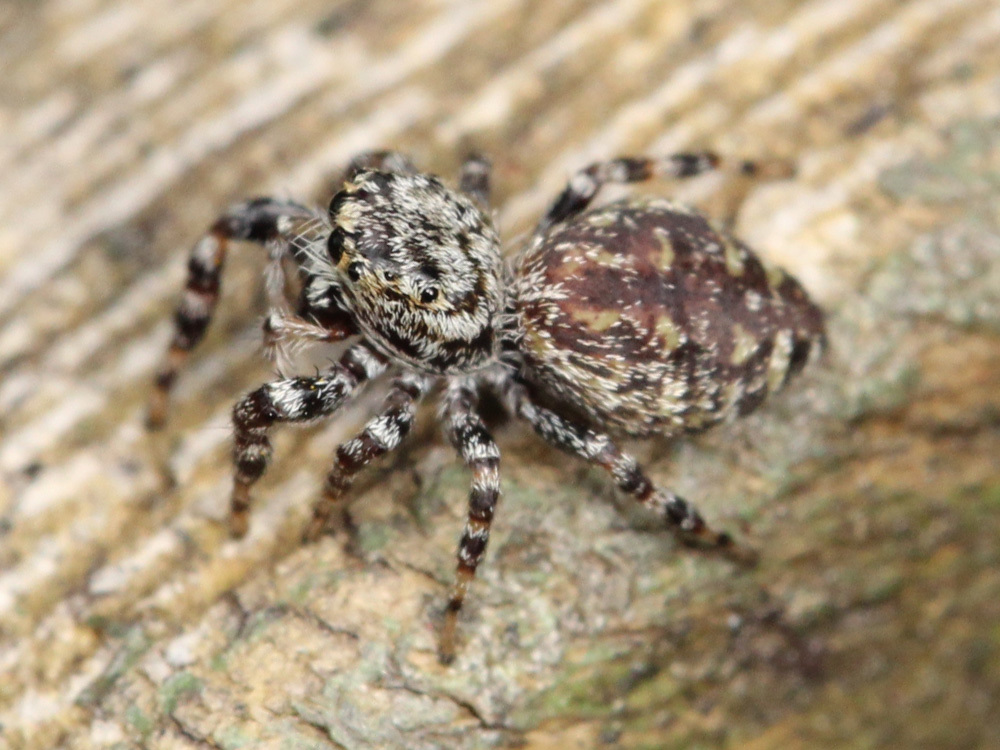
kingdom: Animalia
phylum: Arthropoda
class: Arachnida
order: Araneae
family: Salticidae
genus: Pelegrina
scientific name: Pelegrina galathea
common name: Jumping spiders
